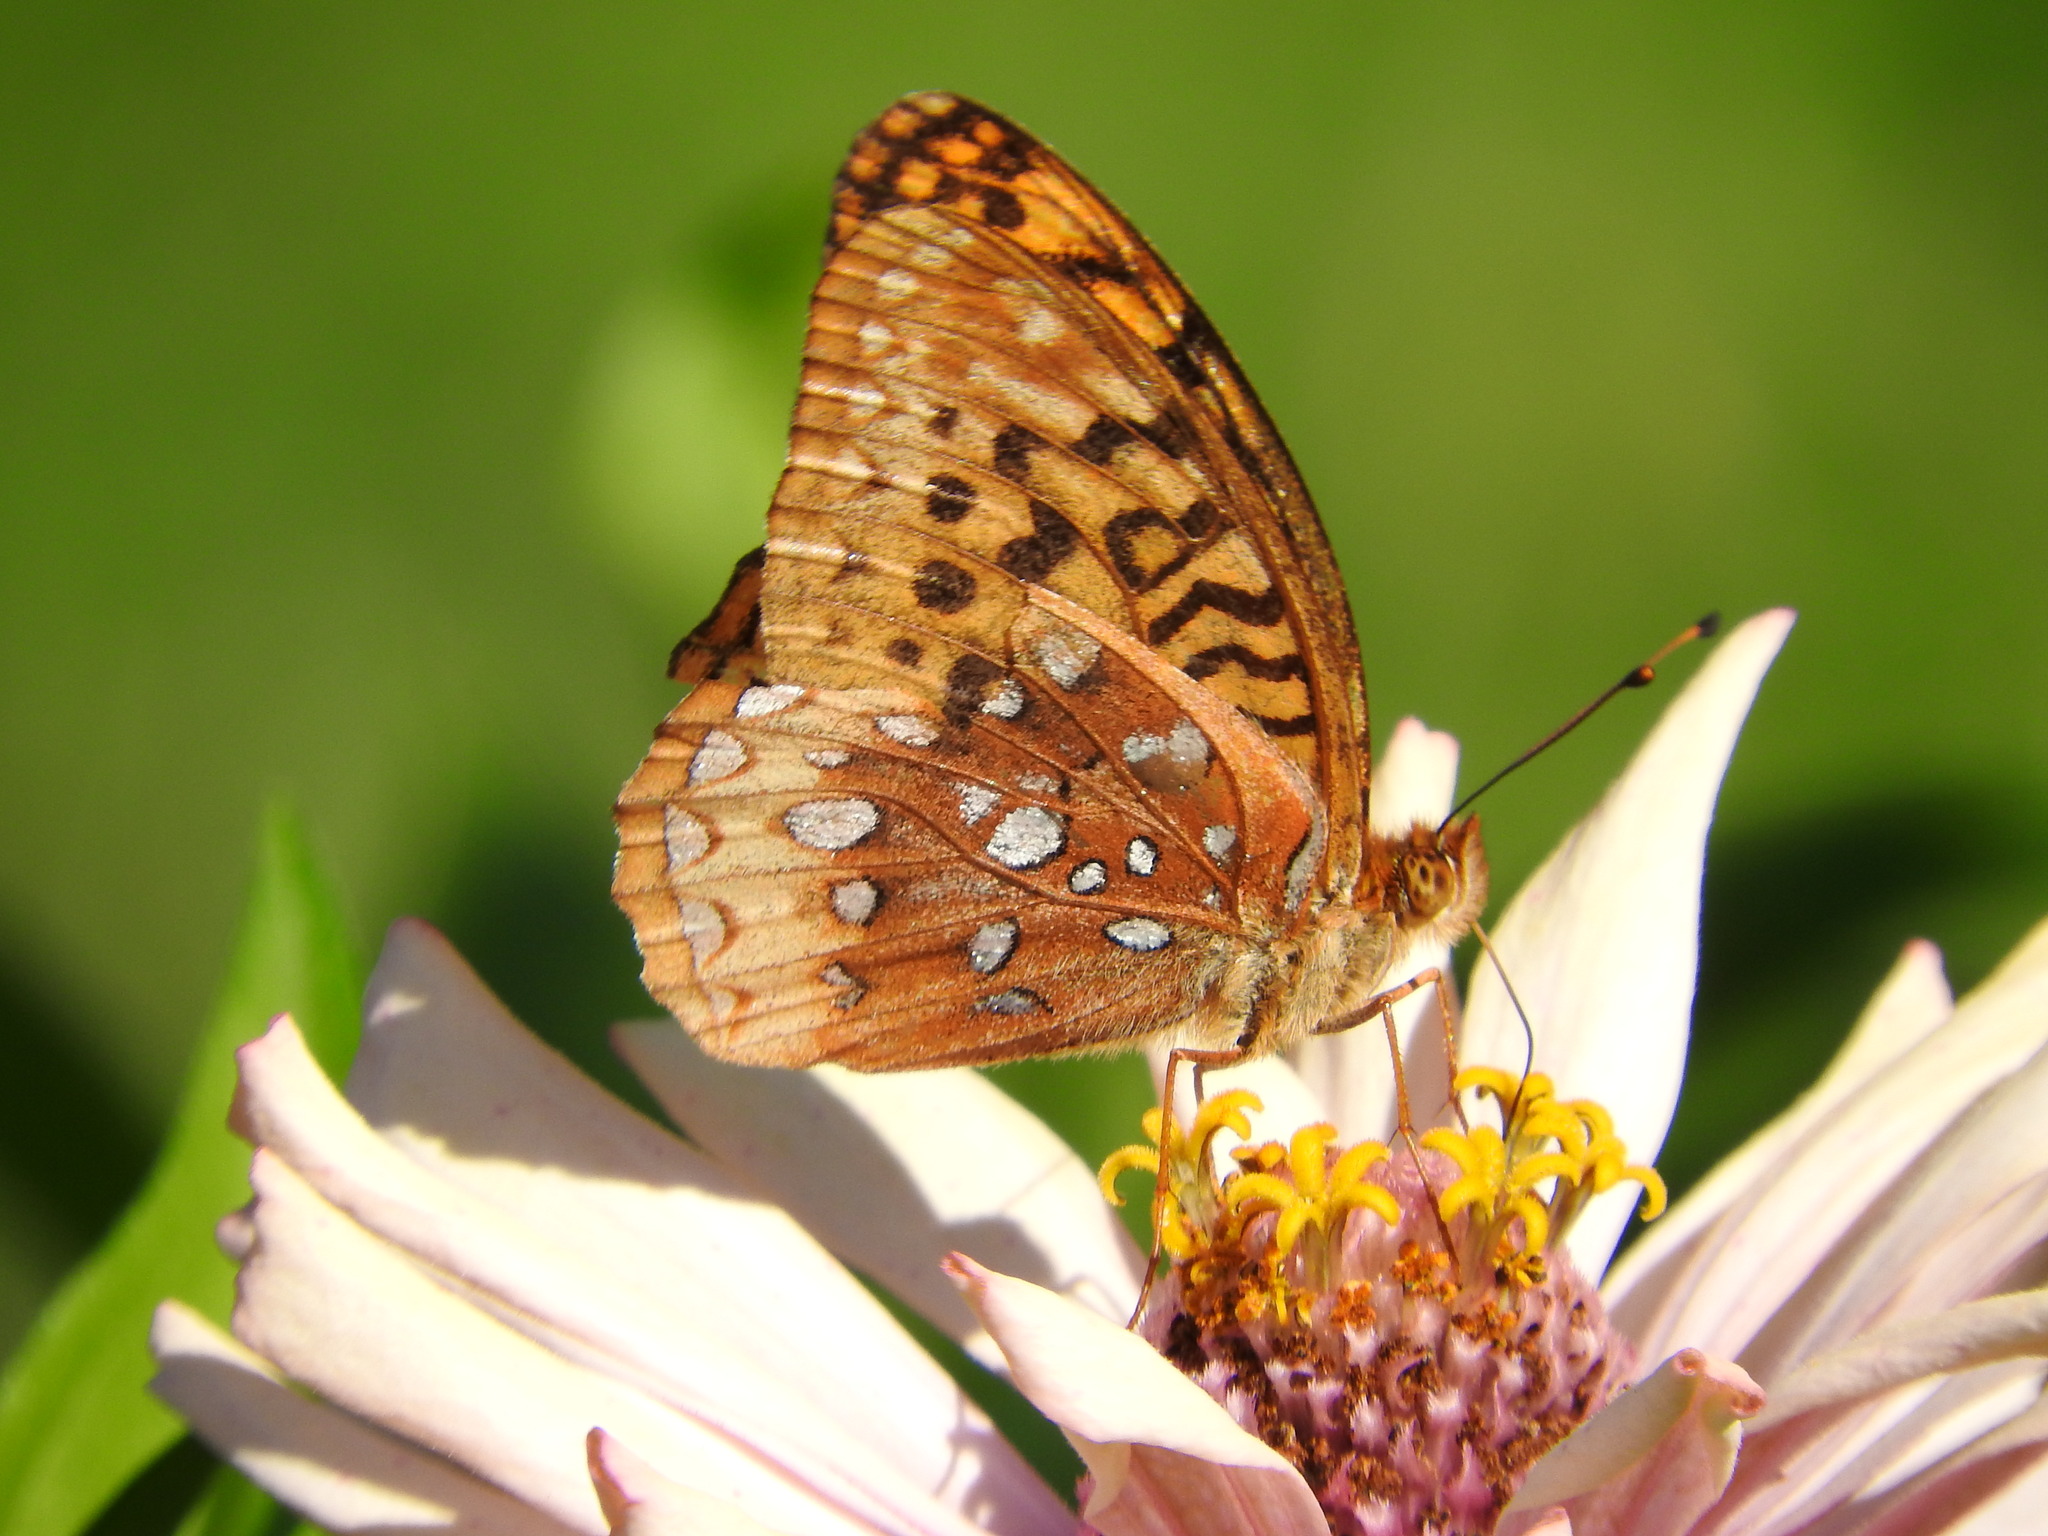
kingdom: Animalia
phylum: Arthropoda
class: Insecta
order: Lepidoptera
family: Nymphalidae
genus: Speyeria
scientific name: Speyeria cybele
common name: Great spangled fritillary
